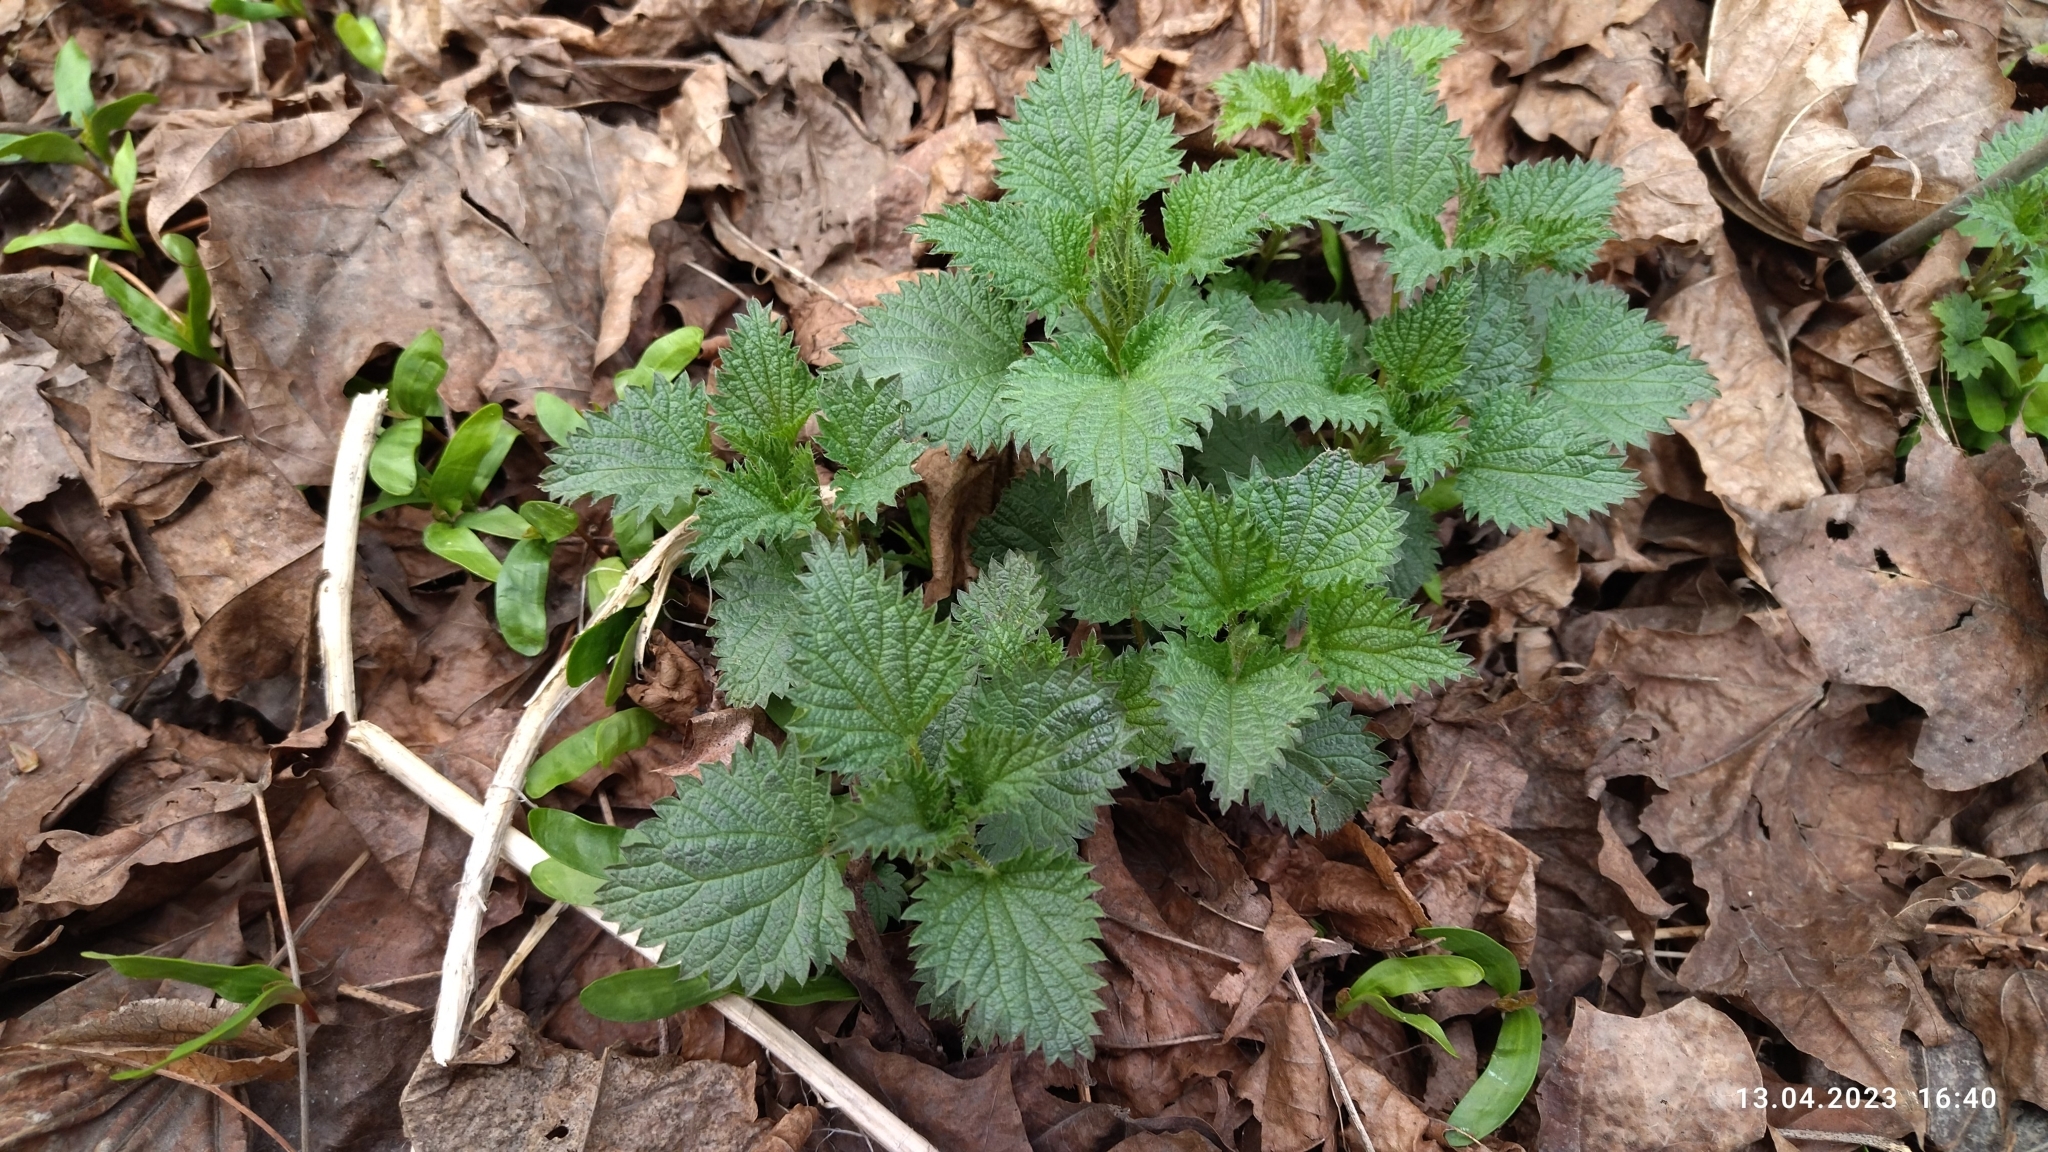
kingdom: Plantae
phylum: Tracheophyta
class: Magnoliopsida
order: Rosales
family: Urticaceae
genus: Urtica
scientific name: Urtica dioica
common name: Common nettle
